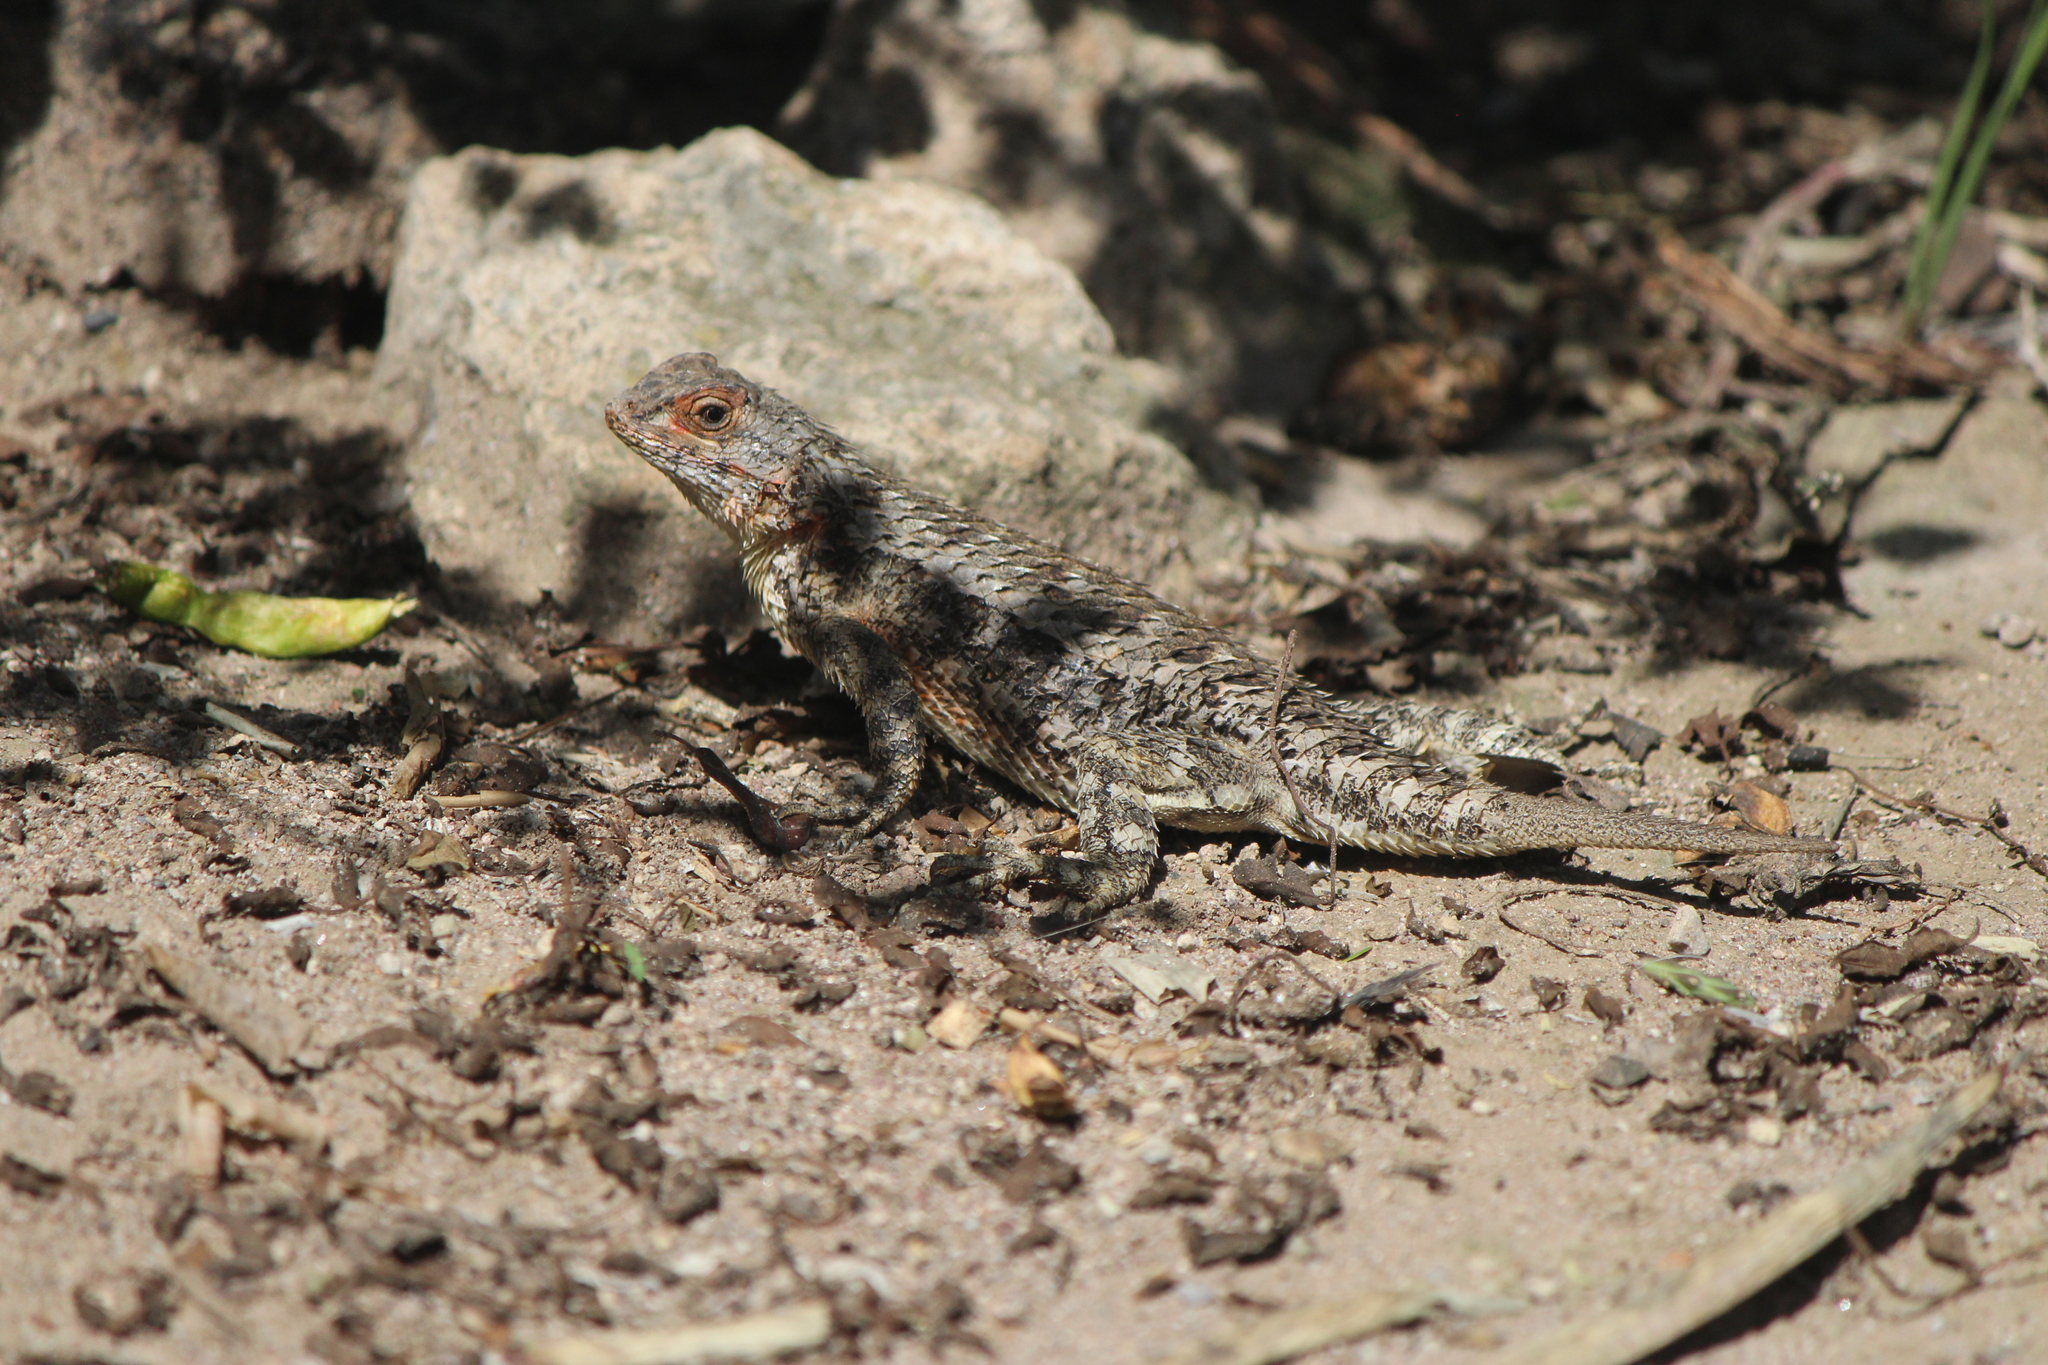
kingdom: Animalia
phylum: Chordata
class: Squamata
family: Phrynosomatidae
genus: Sceloporus
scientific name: Sceloporus spinosus
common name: Blue-spotted spiny lizard [caeruleopunctatus]
